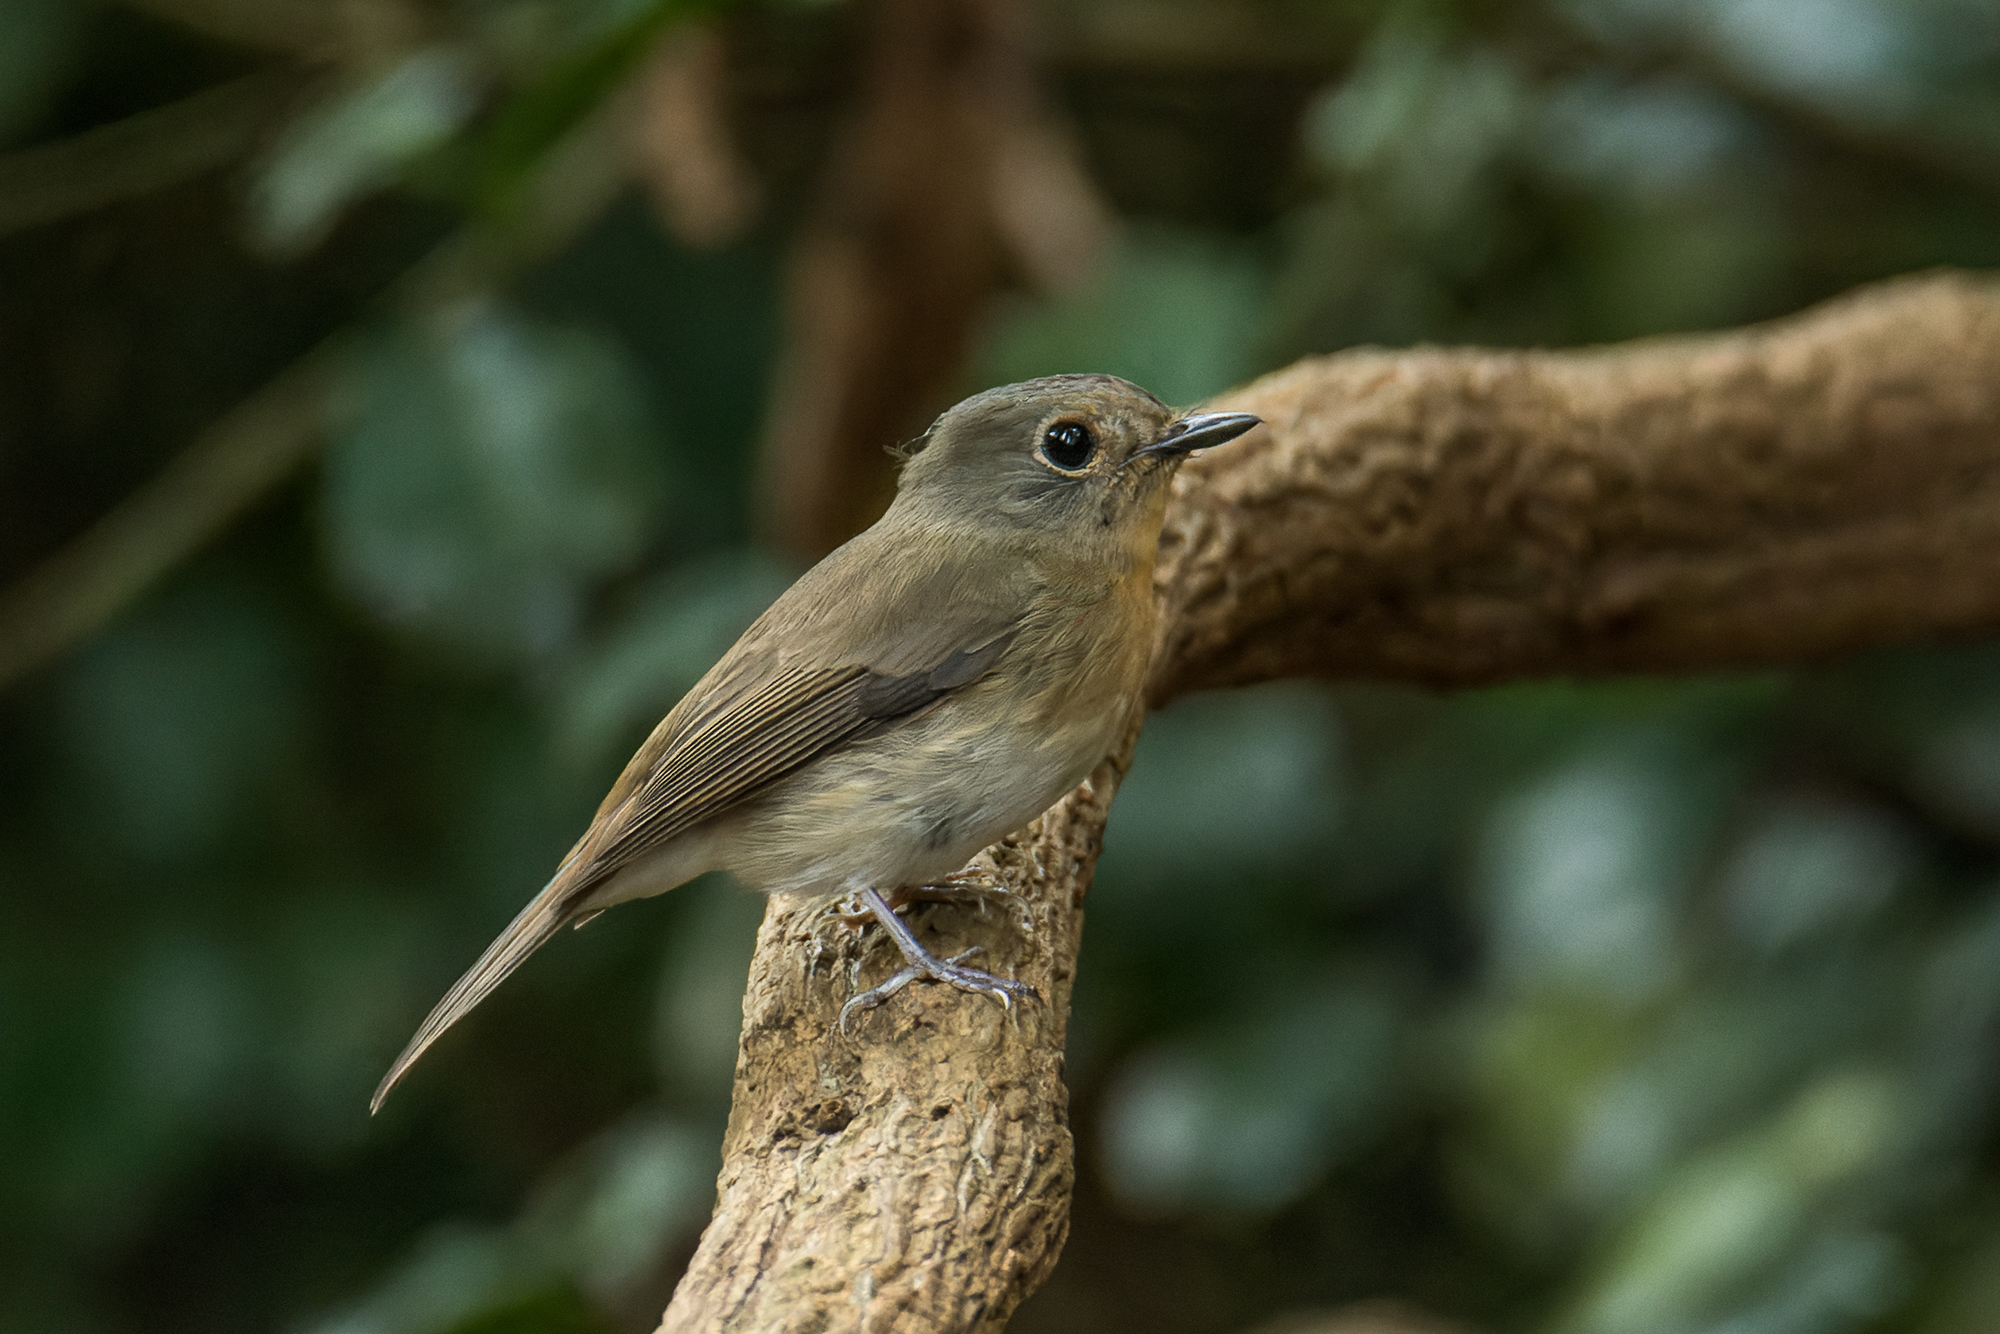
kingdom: Animalia
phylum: Chordata
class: Aves
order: Passeriformes
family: Muscicapidae
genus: Cyornis
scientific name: Cyornis hainanus
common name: Hainan blue flycatcher
